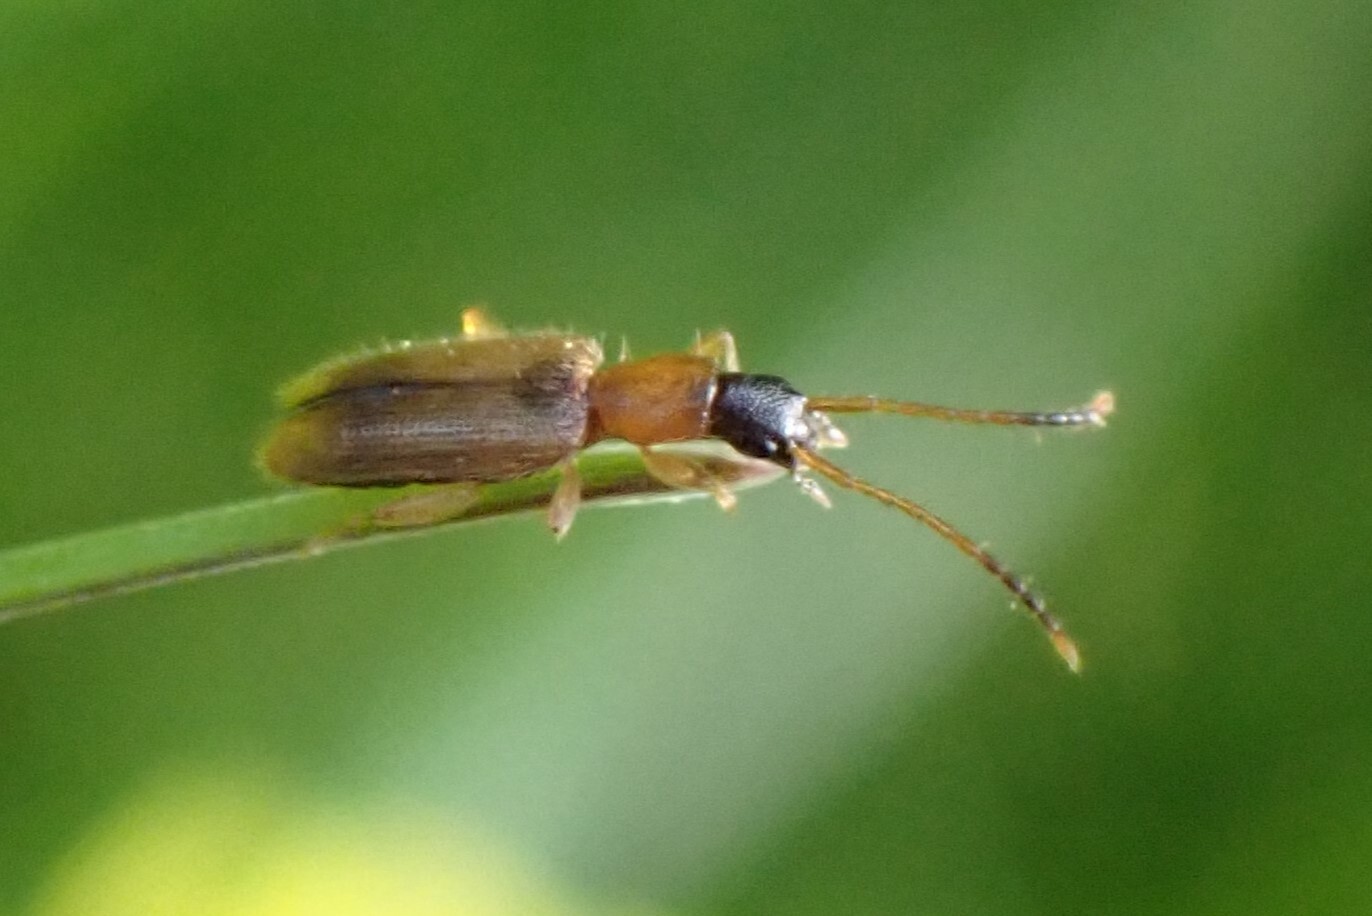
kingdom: Animalia
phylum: Arthropoda
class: Insecta
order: Coleoptera
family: Silvanidae
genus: Telephanus
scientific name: Telephanus velox
